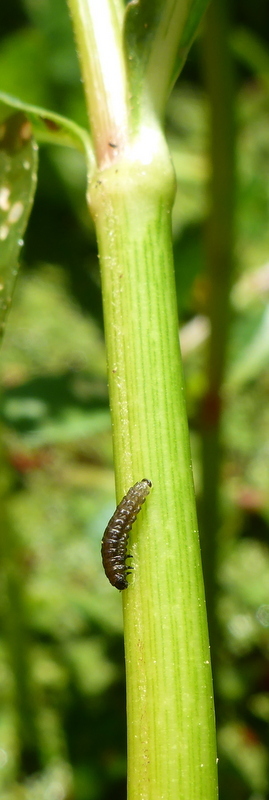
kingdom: Animalia
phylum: Arthropoda
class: Insecta
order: Coleoptera
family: Chrysomelidae
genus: Agasicles
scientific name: Agasicles hygrophila
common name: Alligatorweed flea beetle
